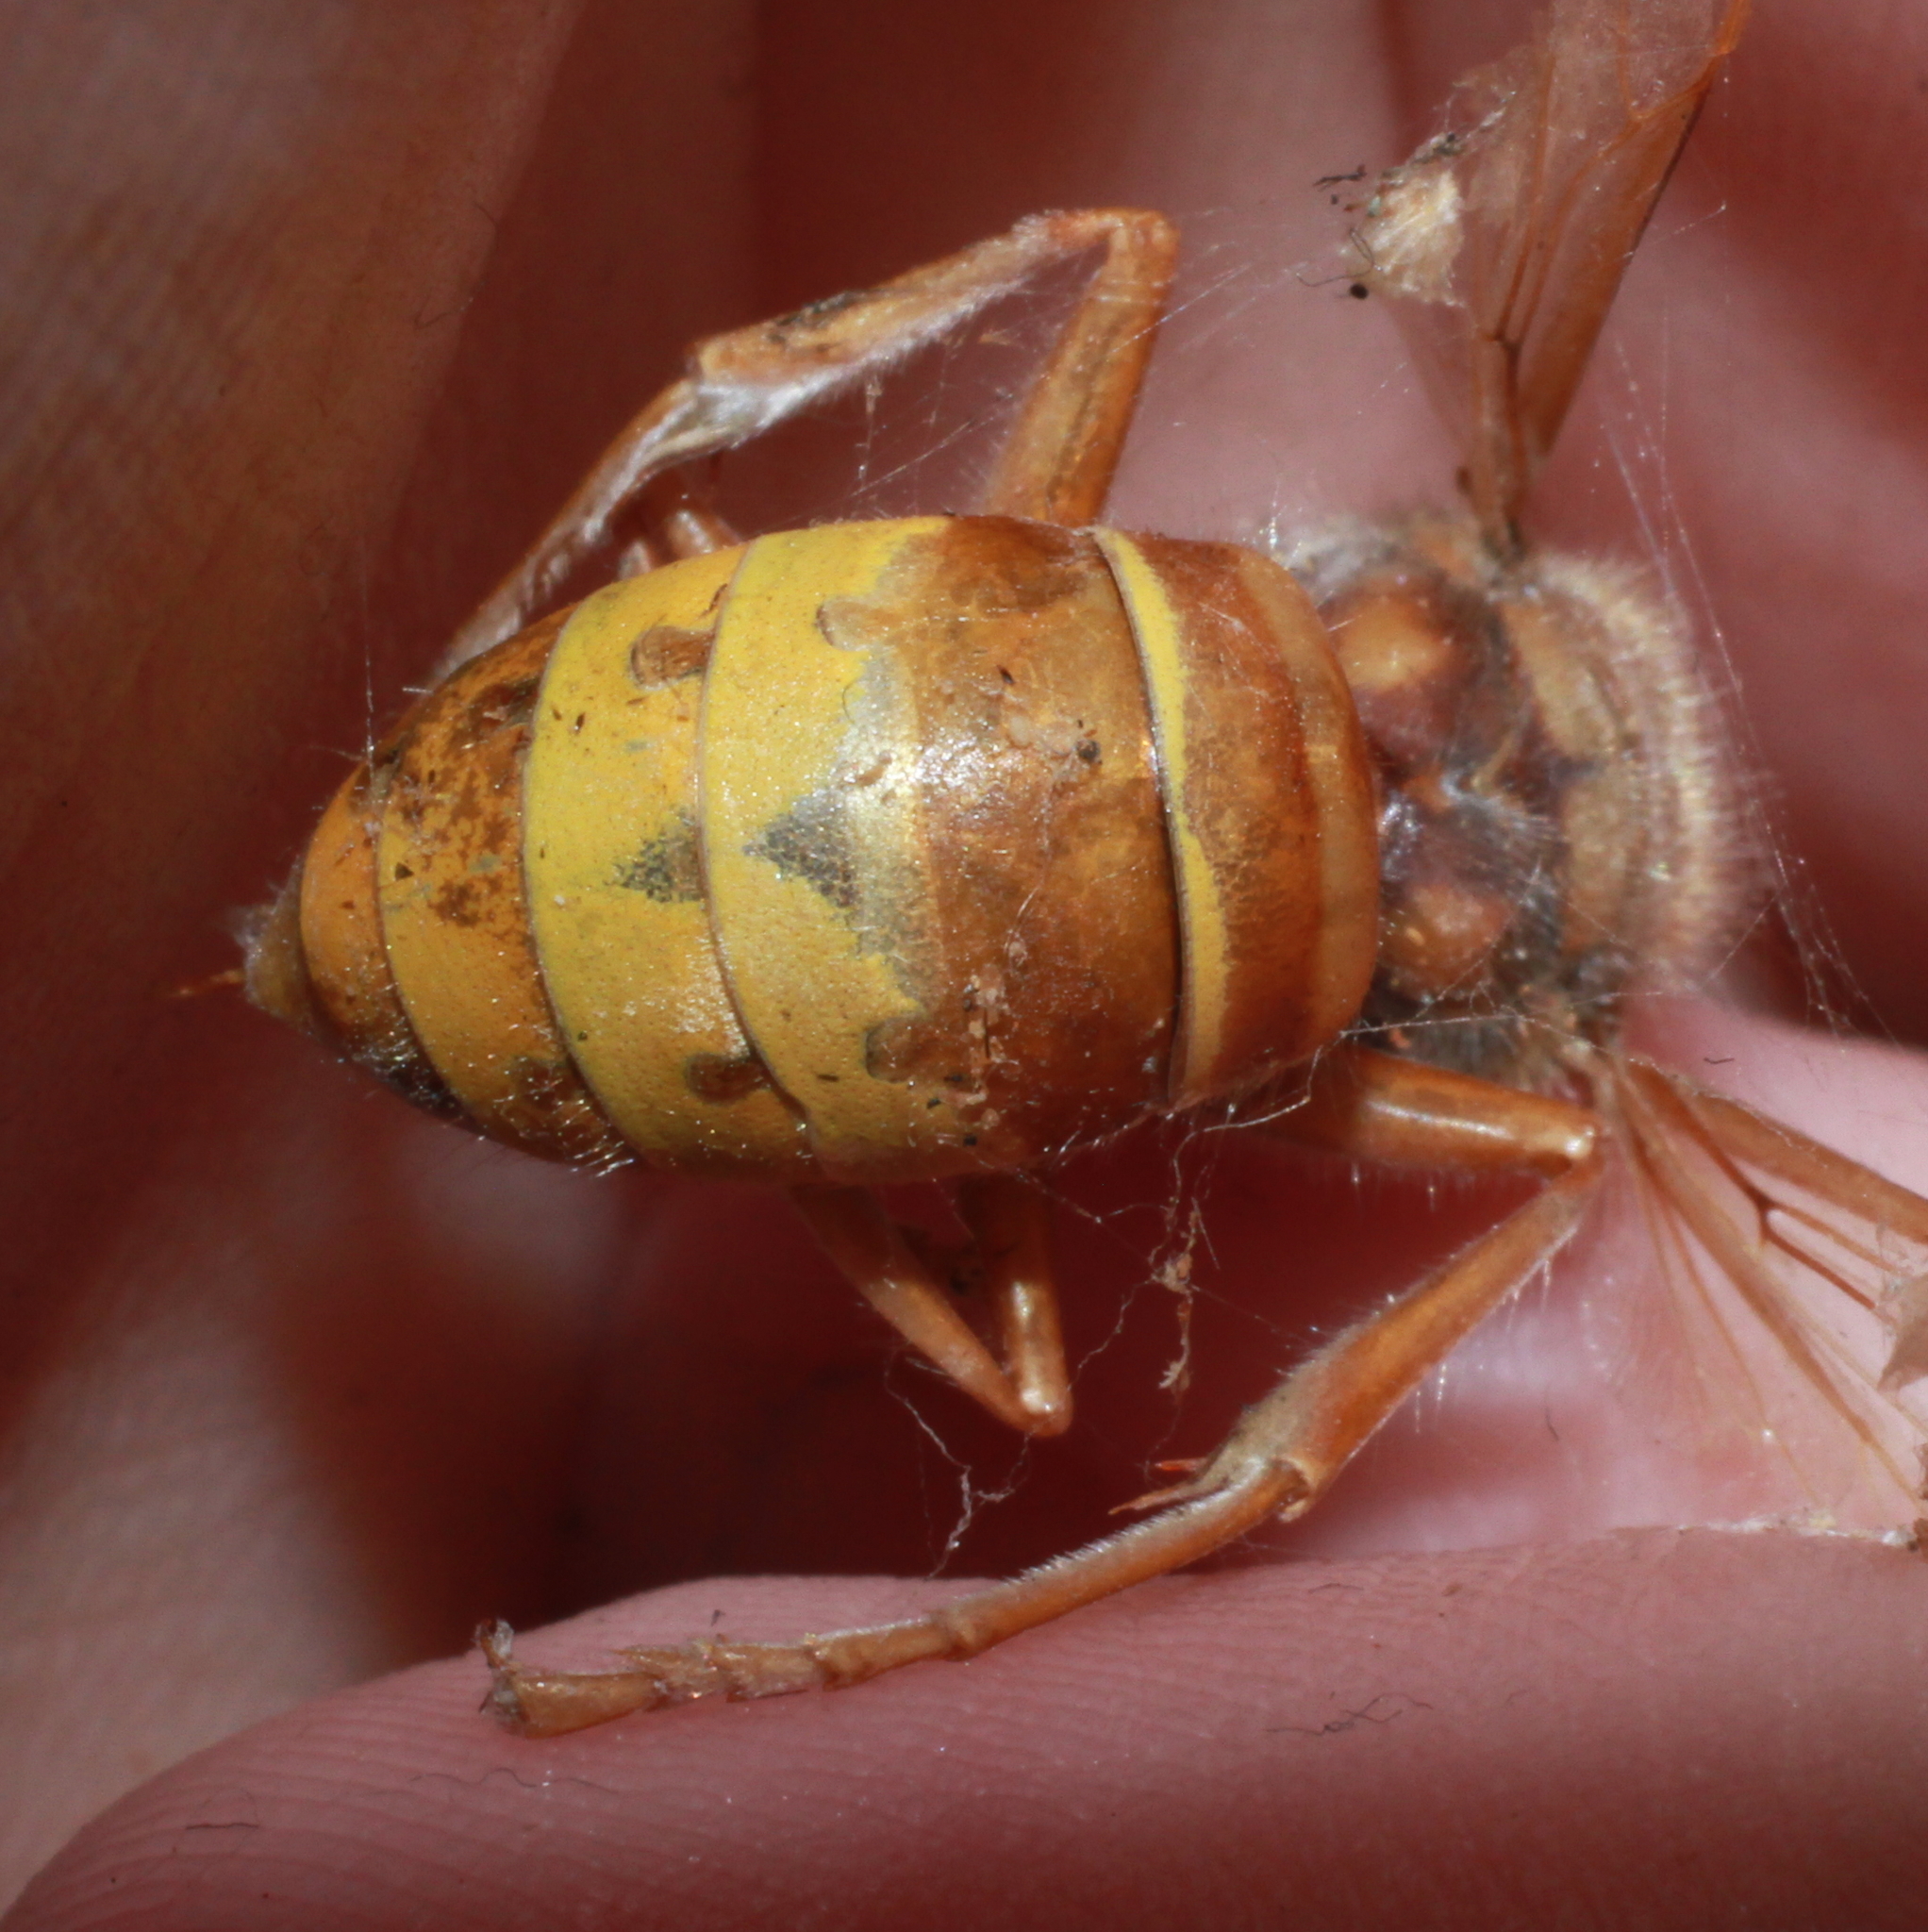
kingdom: Animalia
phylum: Arthropoda
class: Insecta
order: Hymenoptera
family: Vespidae
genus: Vespa
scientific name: Vespa crabro
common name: Hornet
